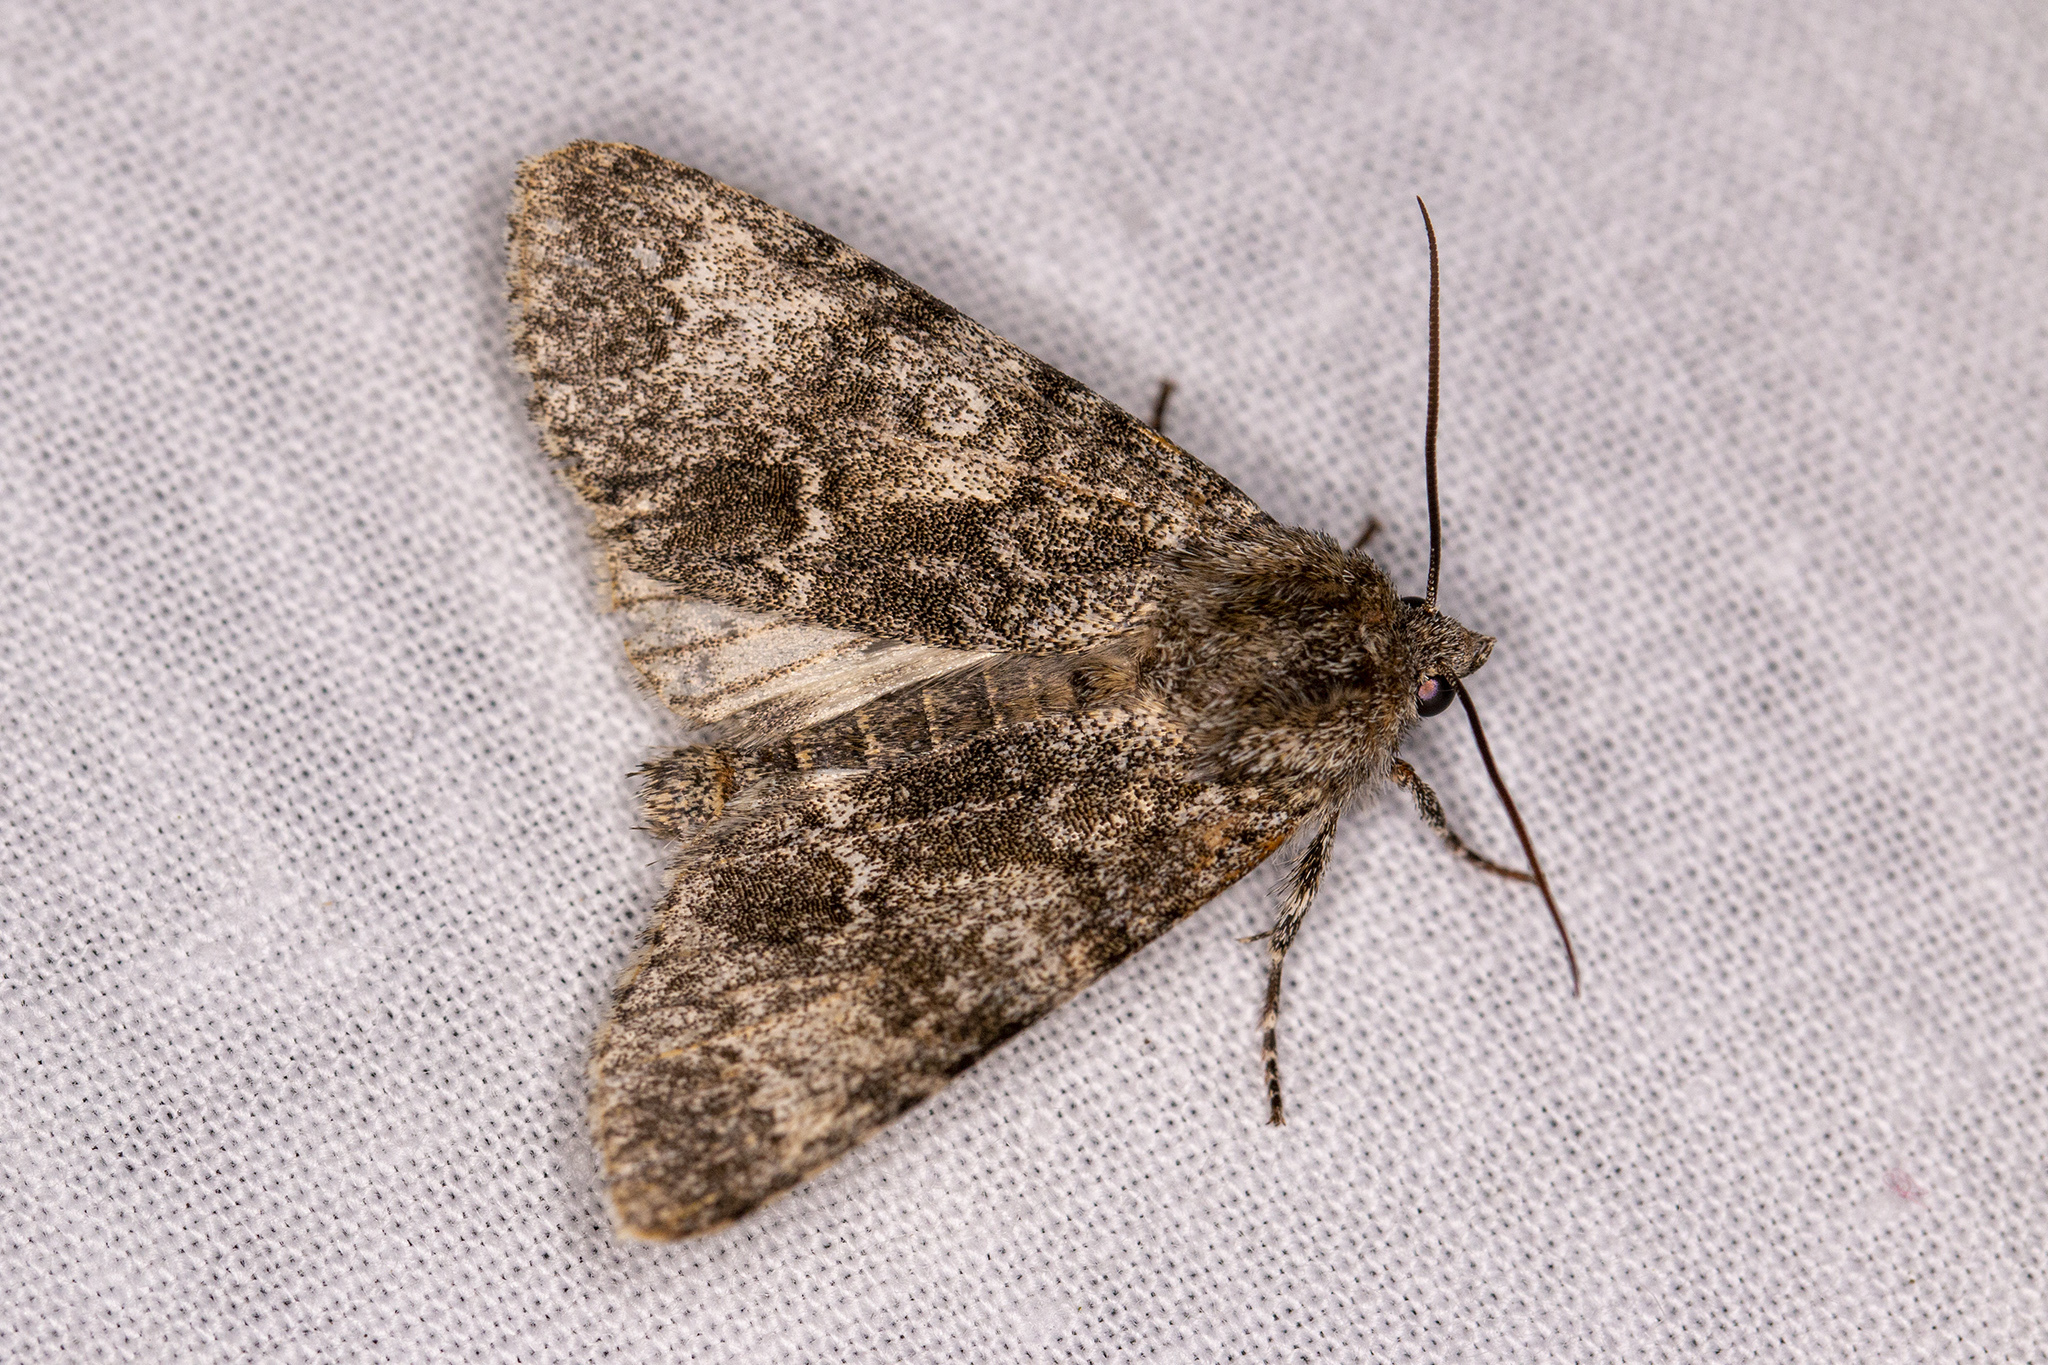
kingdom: Animalia
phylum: Arthropoda
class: Insecta
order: Lepidoptera
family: Noctuidae
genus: Acronicta
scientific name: Acronicta megacephala
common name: Poplar grey
